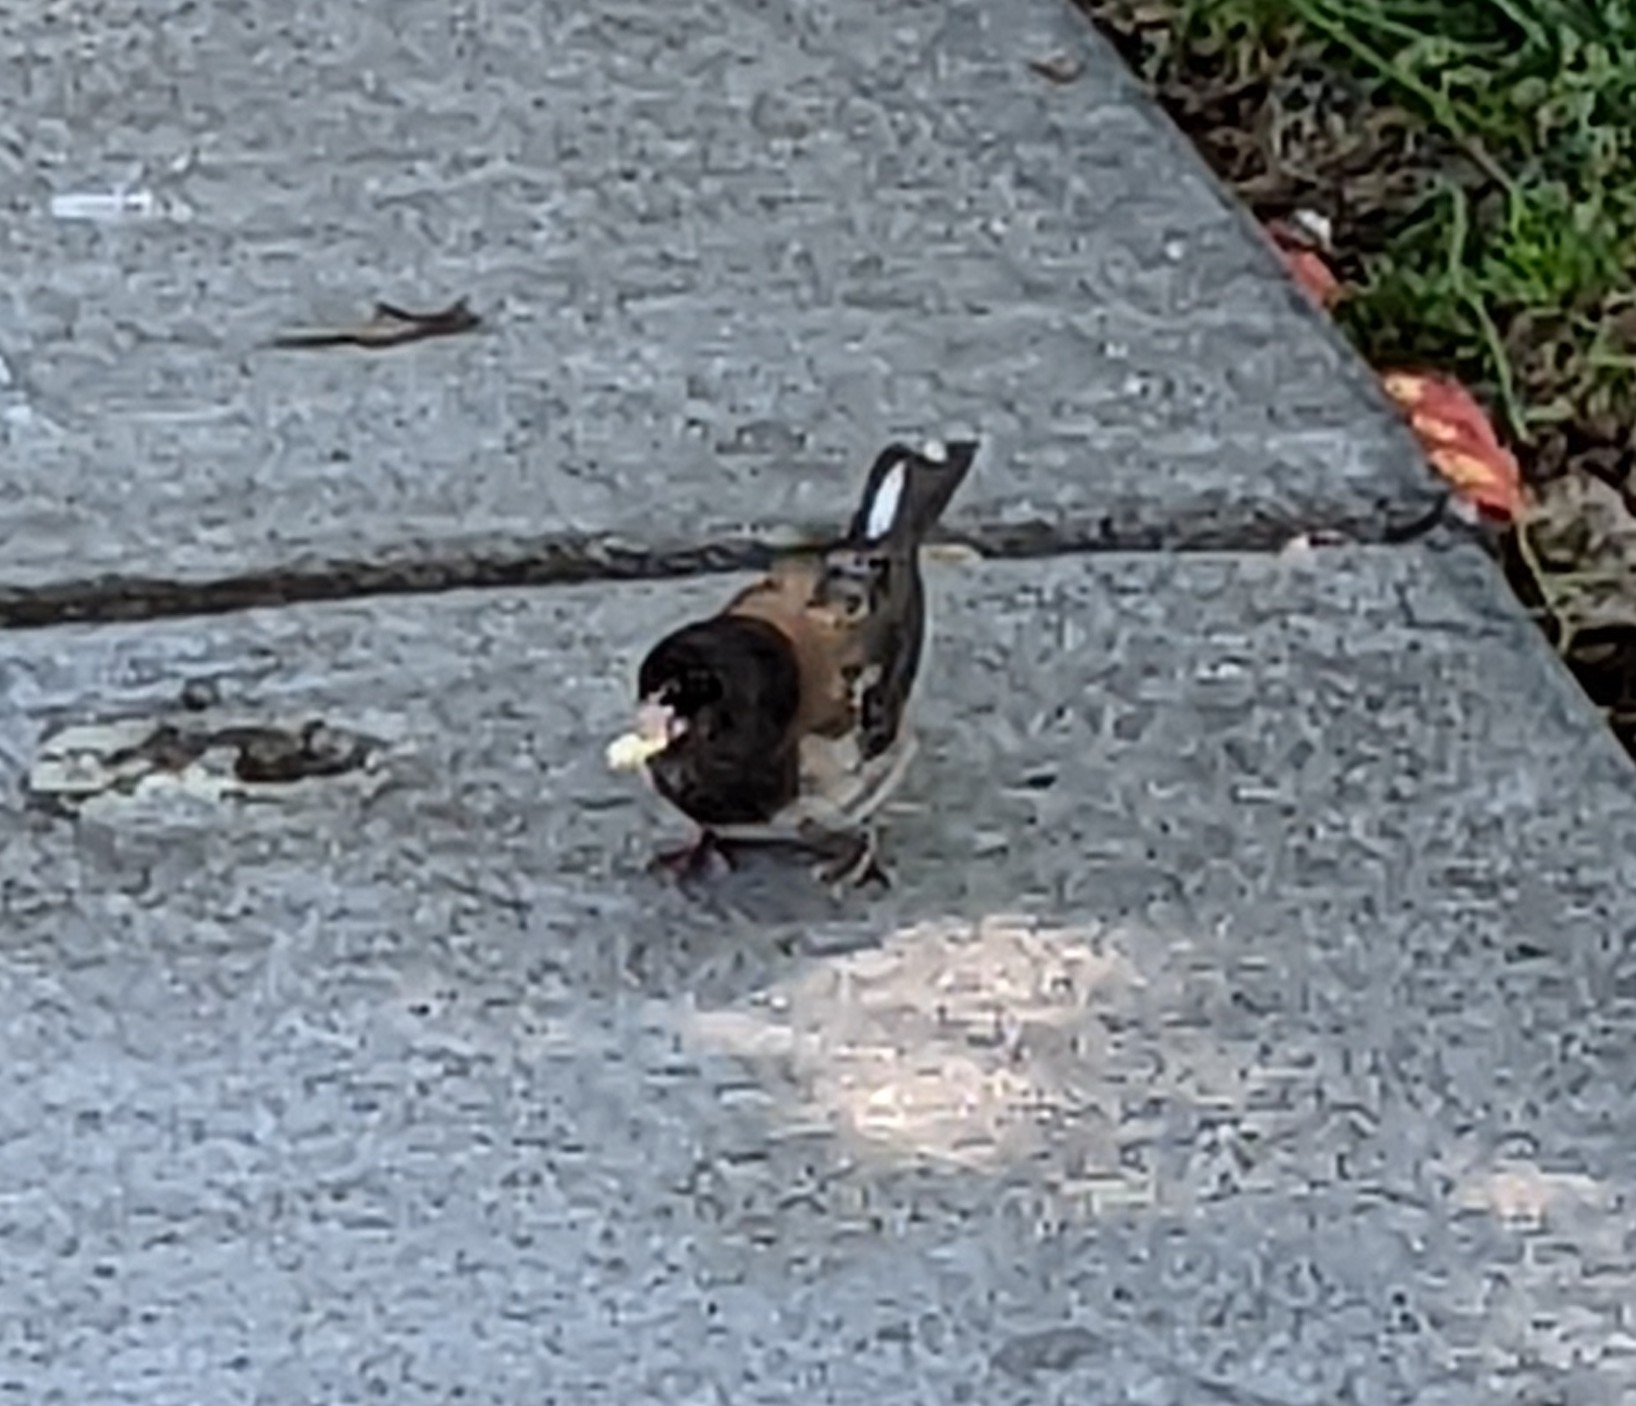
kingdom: Animalia
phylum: Chordata
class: Aves
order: Passeriformes
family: Passerellidae
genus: Junco
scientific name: Junco hyemalis
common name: Dark-eyed junco
